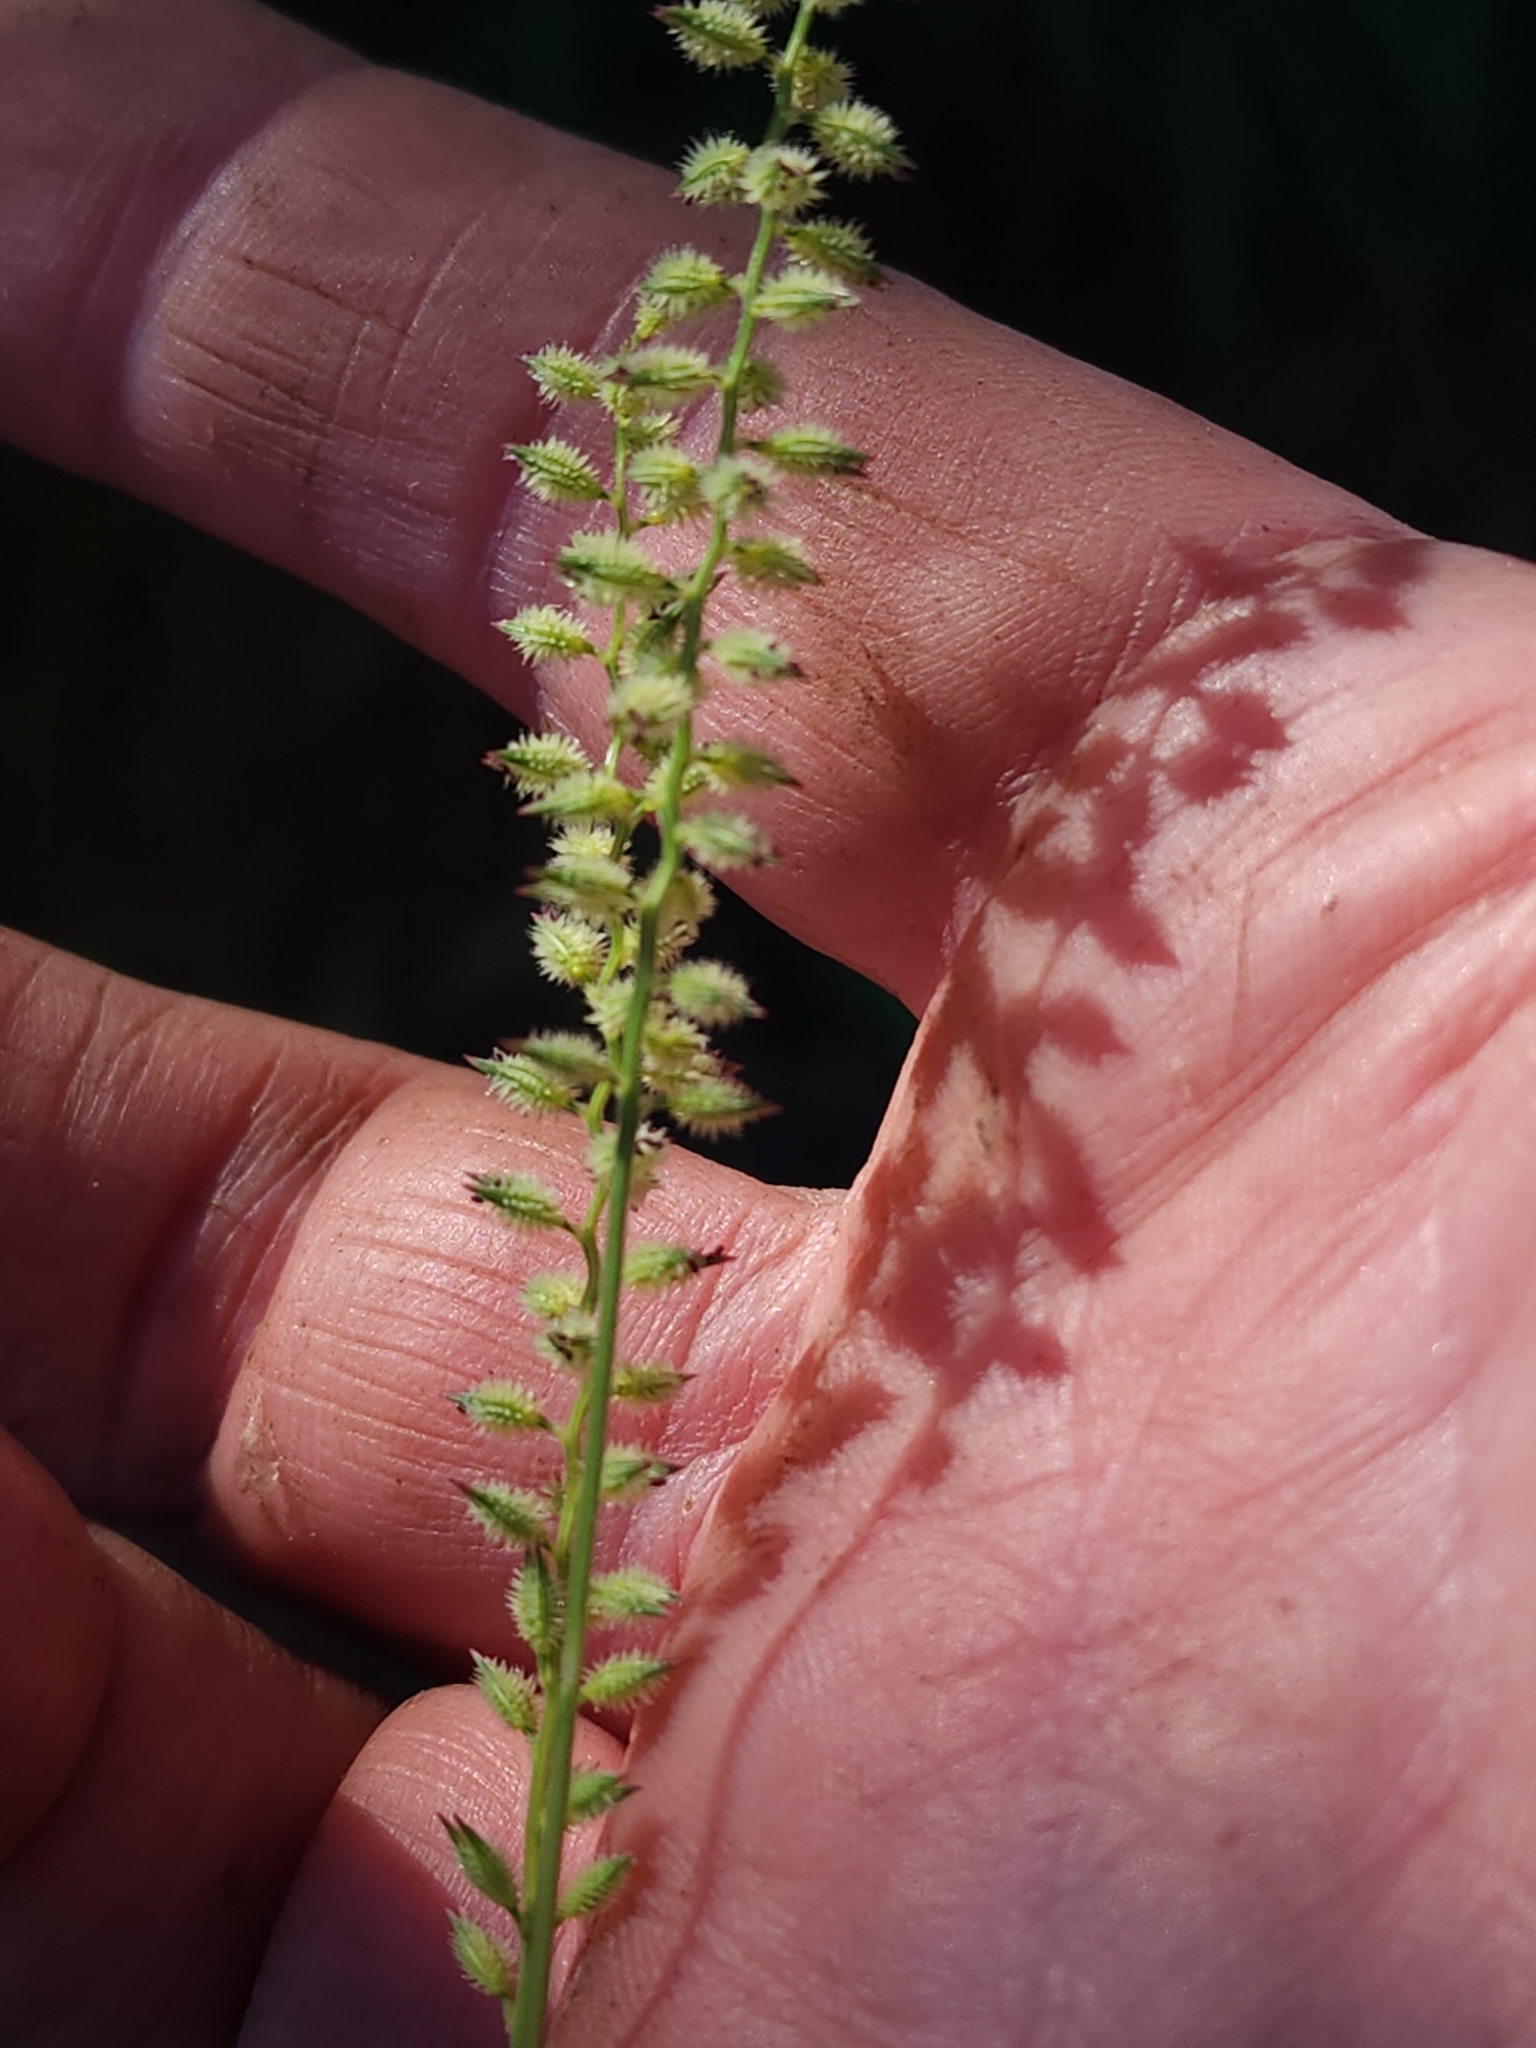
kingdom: Plantae
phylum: Tracheophyta
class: Liliopsida
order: Poales
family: Poaceae
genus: Tragus
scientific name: Tragus australianus
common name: Australian bur-grass
